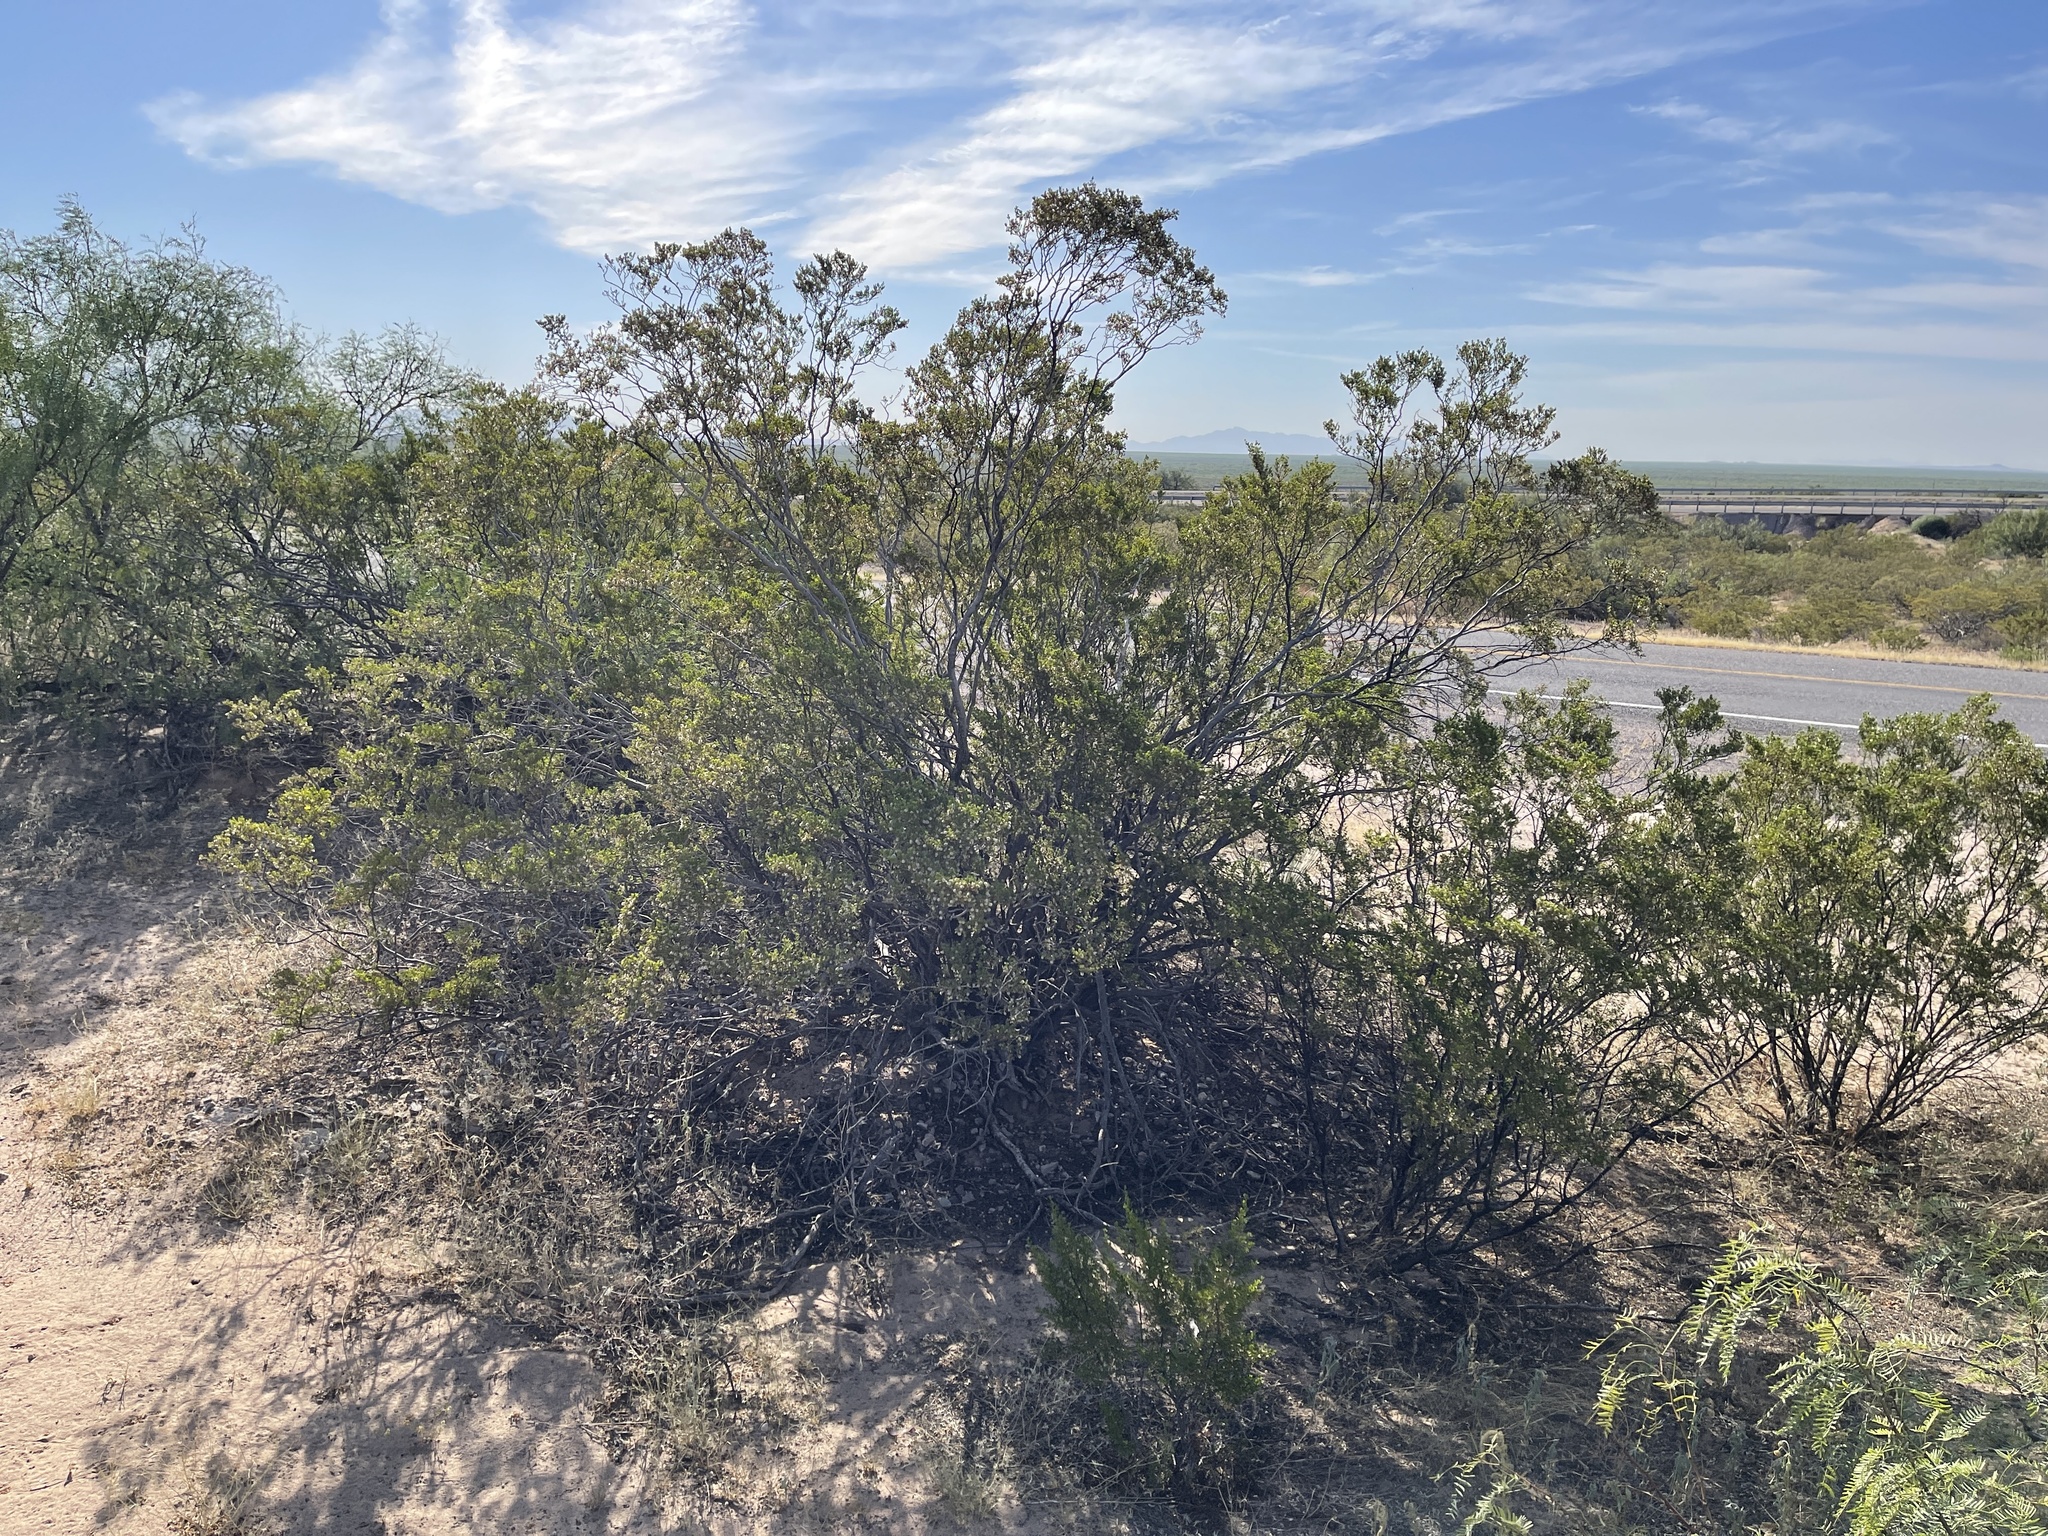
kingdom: Plantae
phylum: Tracheophyta
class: Magnoliopsida
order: Zygophyllales
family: Zygophyllaceae
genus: Larrea
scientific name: Larrea tridentata
